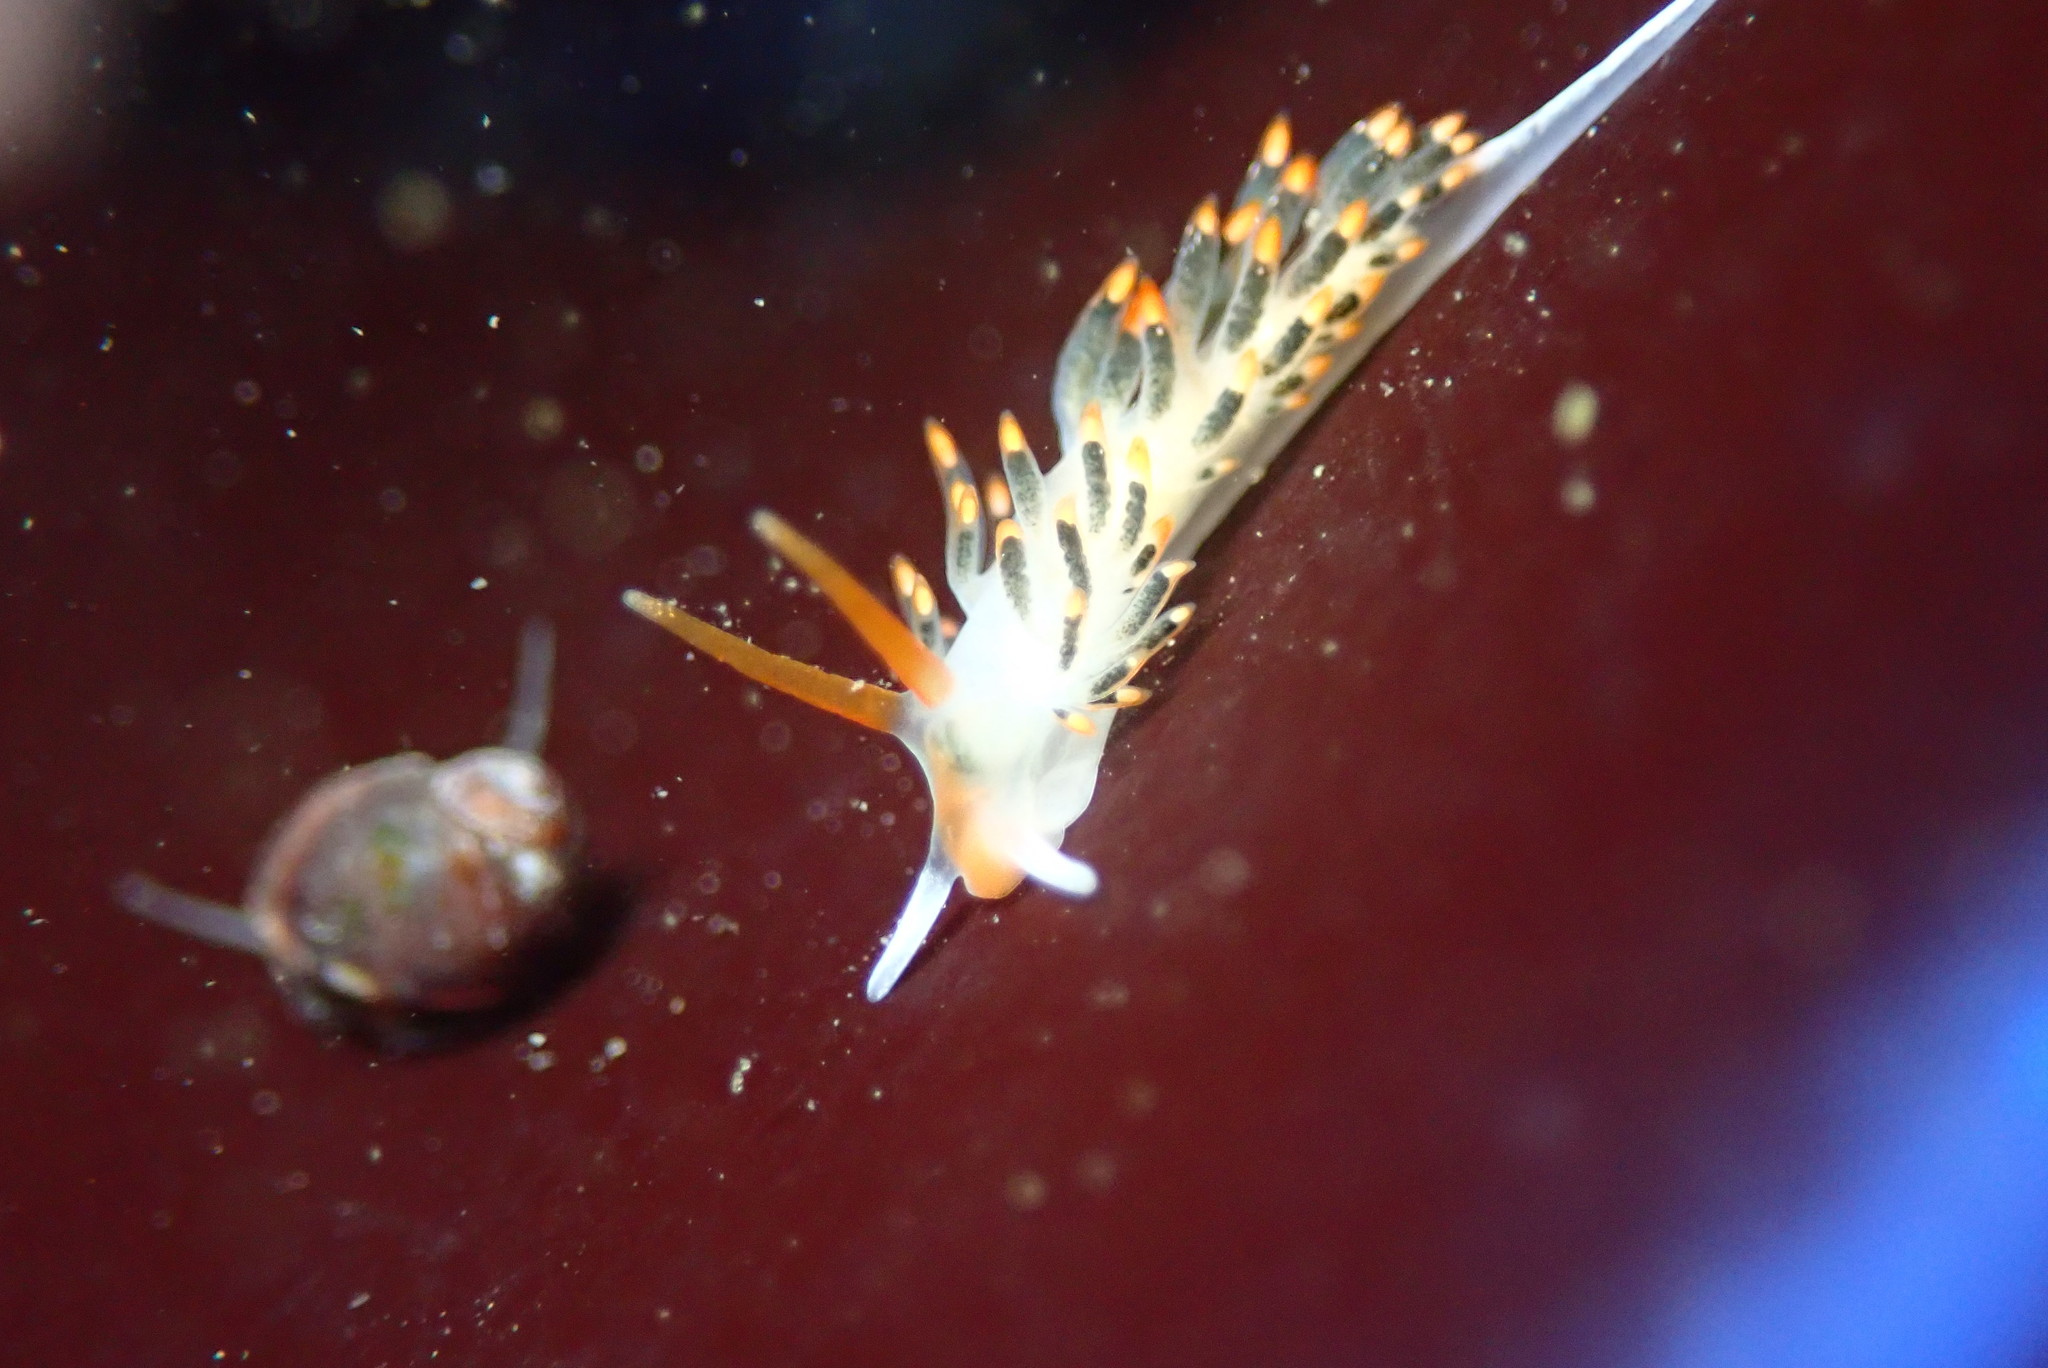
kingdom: Animalia
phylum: Mollusca
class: Gastropoda
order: Nudibranchia
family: Trinchesiidae
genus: Diaphoreolis
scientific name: Diaphoreolis lagunae
